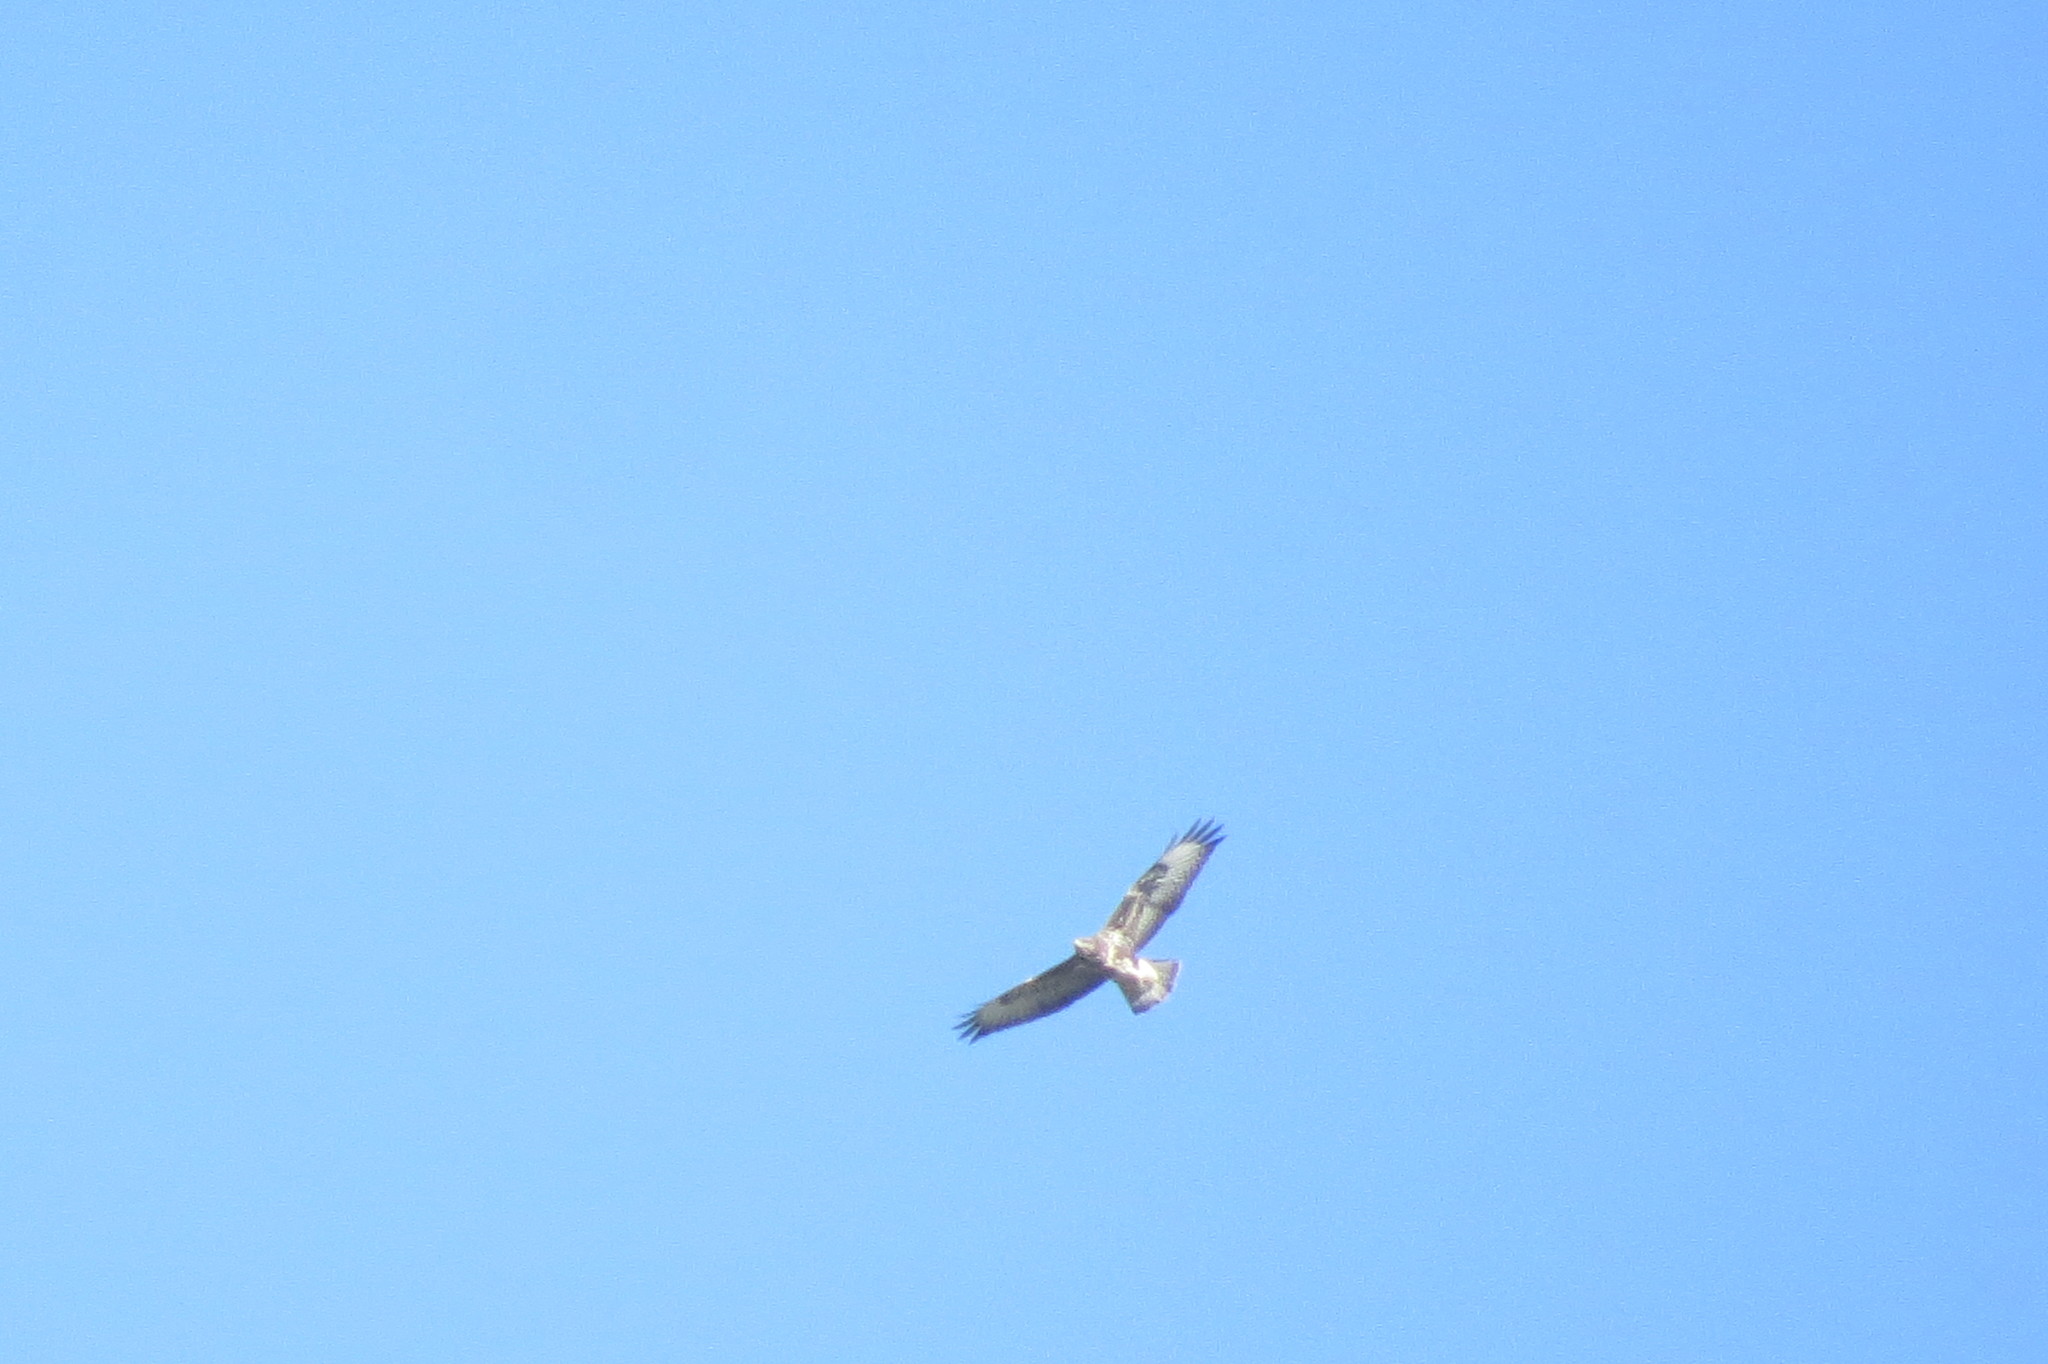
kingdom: Animalia
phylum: Chordata
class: Aves
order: Accipitriformes
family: Accipitridae
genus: Buteo
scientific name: Buteo buteo
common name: Common buzzard
